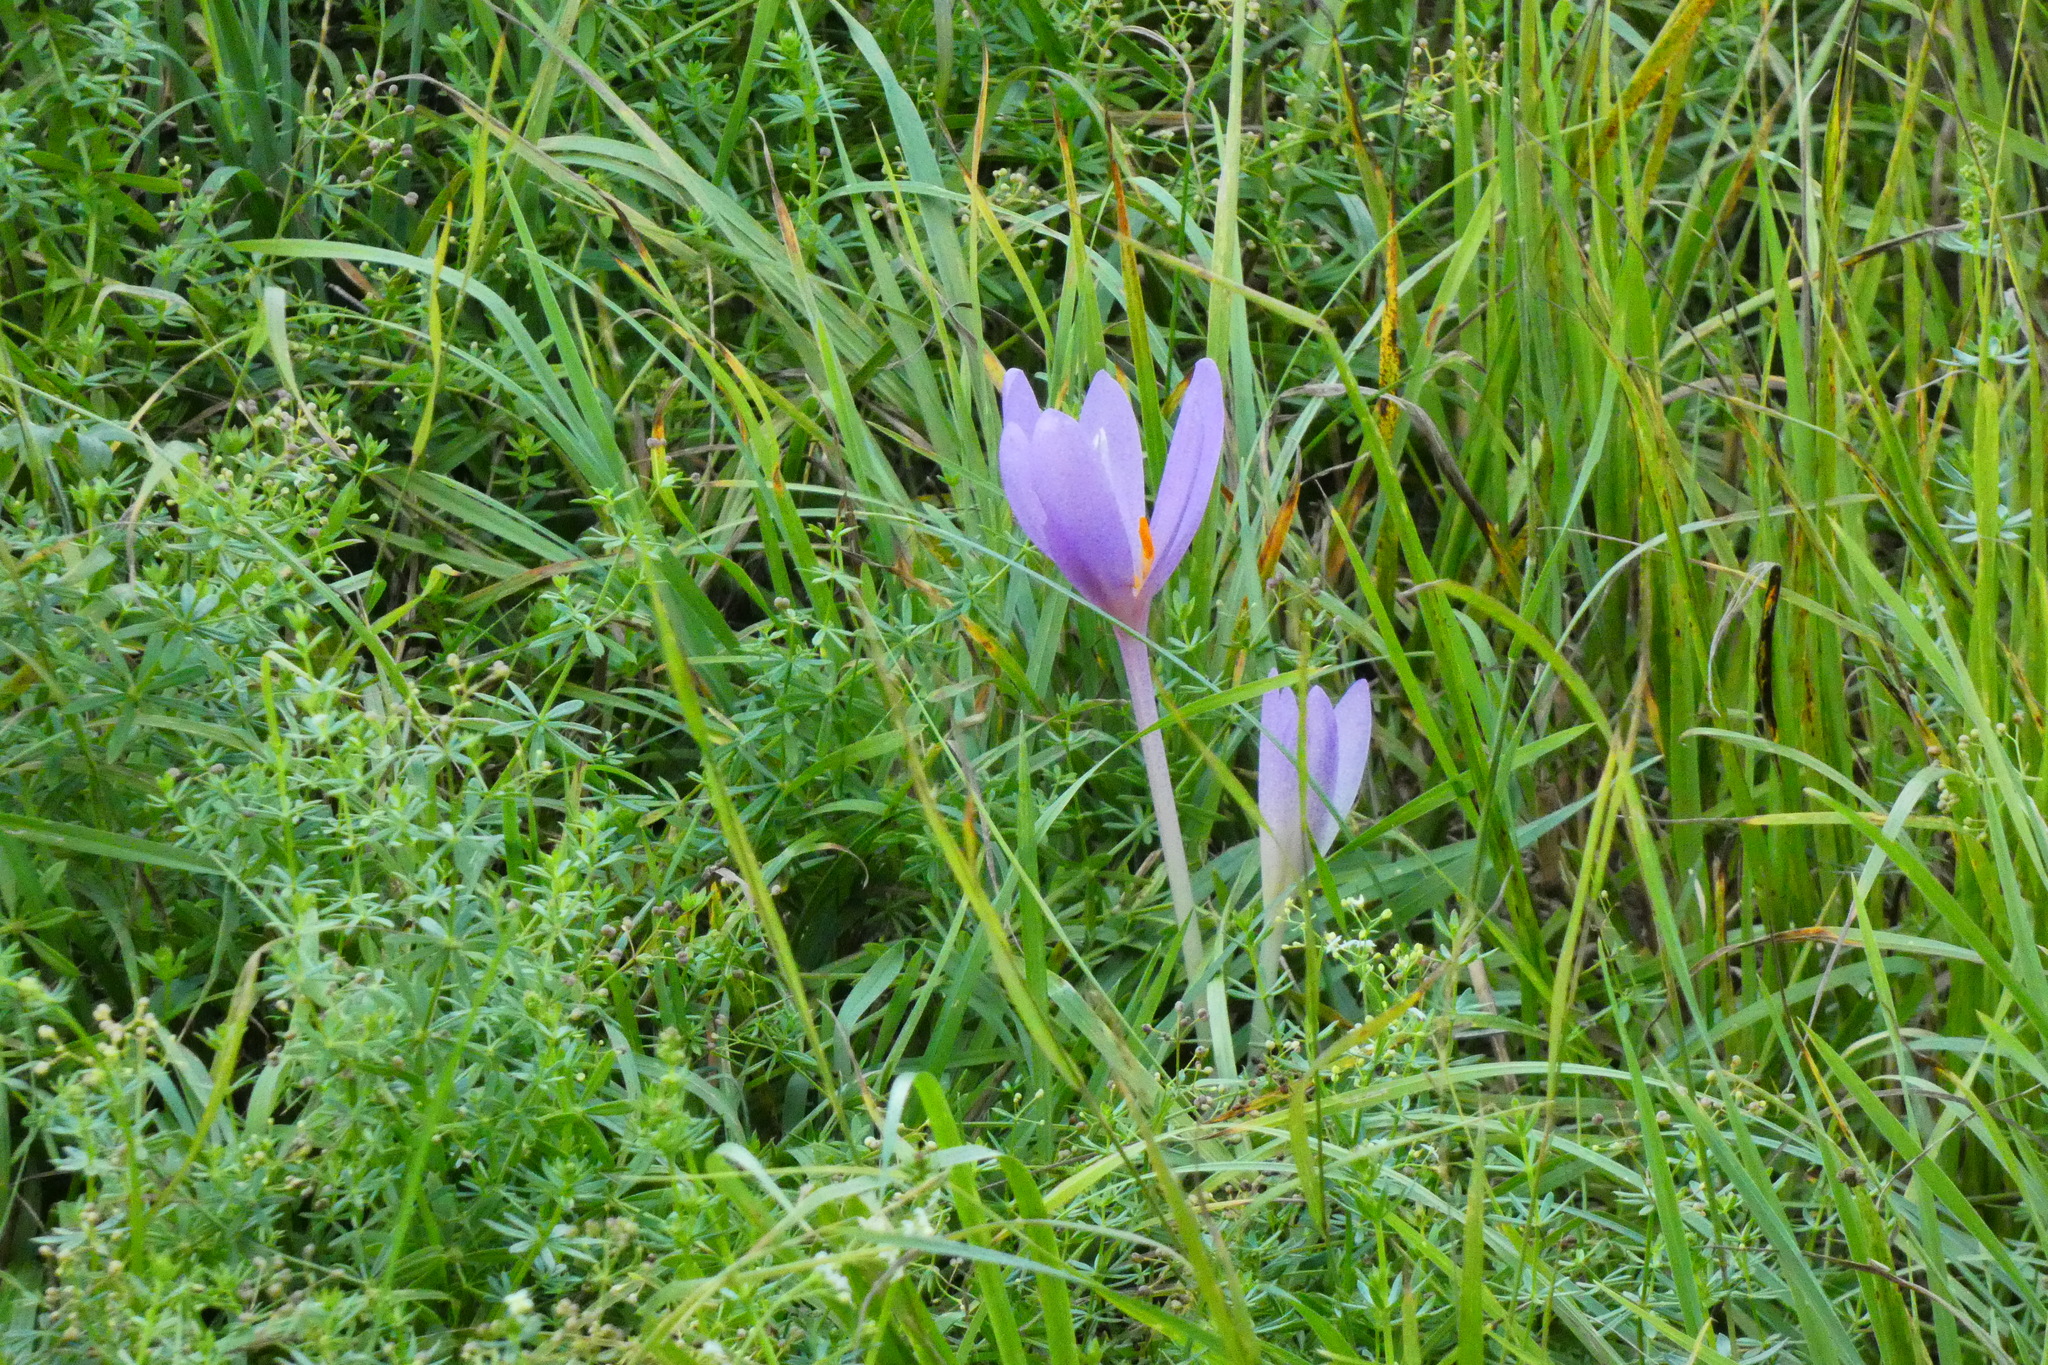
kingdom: Plantae
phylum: Tracheophyta
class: Liliopsida
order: Liliales
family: Colchicaceae
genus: Colchicum
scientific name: Colchicum autumnale
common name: Autumn crocus
